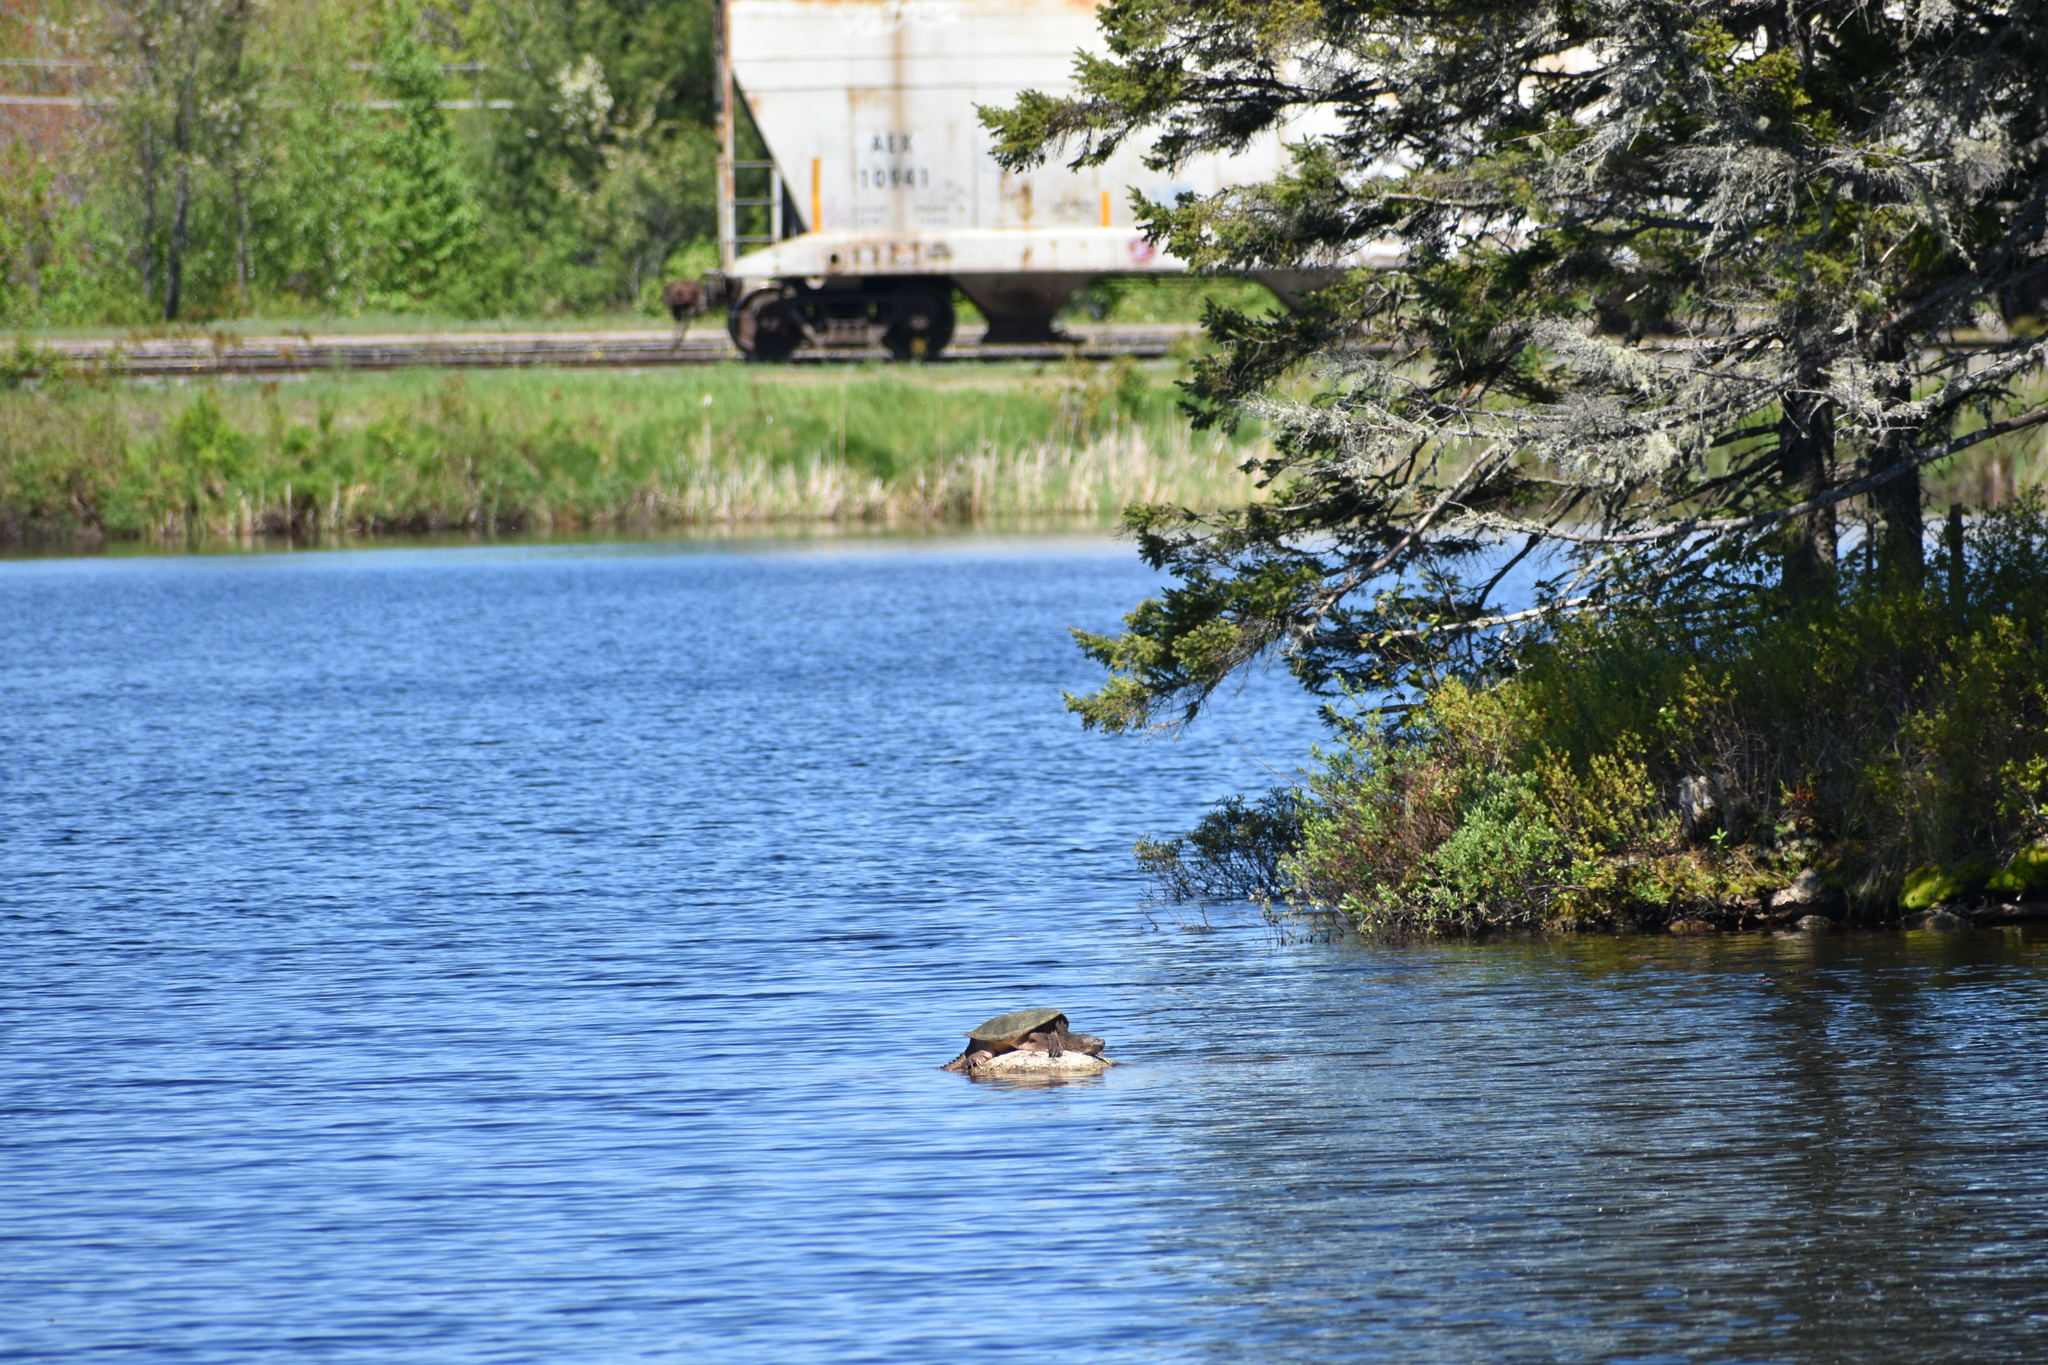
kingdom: Animalia
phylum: Chordata
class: Testudines
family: Chelydridae
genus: Chelydra
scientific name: Chelydra serpentina
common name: Common snapping turtle
